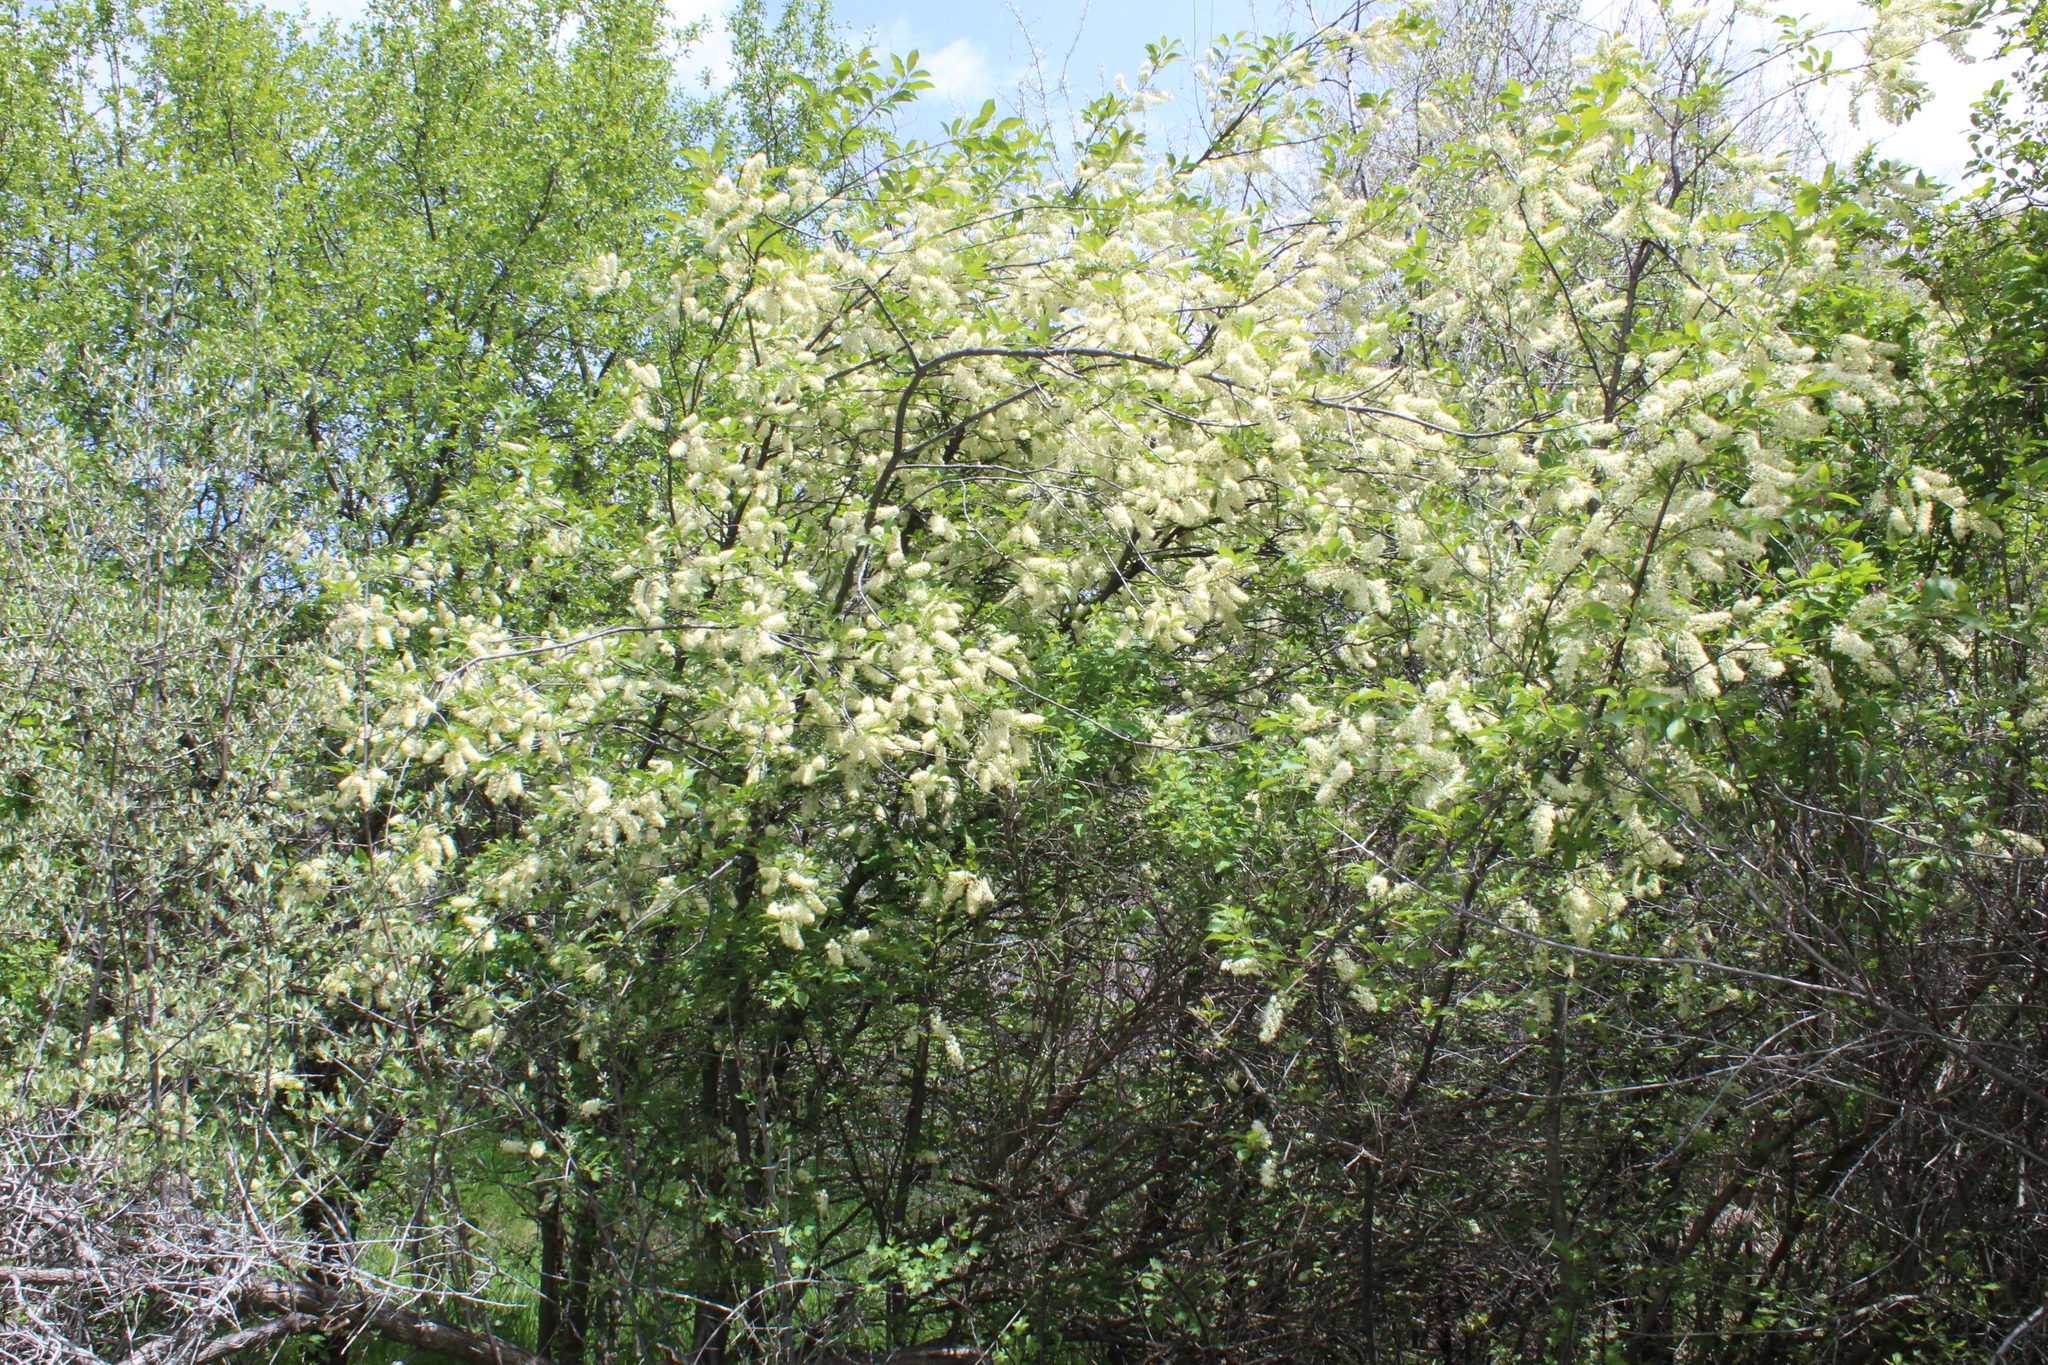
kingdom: Plantae
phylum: Tracheophyta
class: Magnoliopsida
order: Rosales
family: Rosaceae
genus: Prunus
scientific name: Prunus virginiana
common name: Chokecherry
